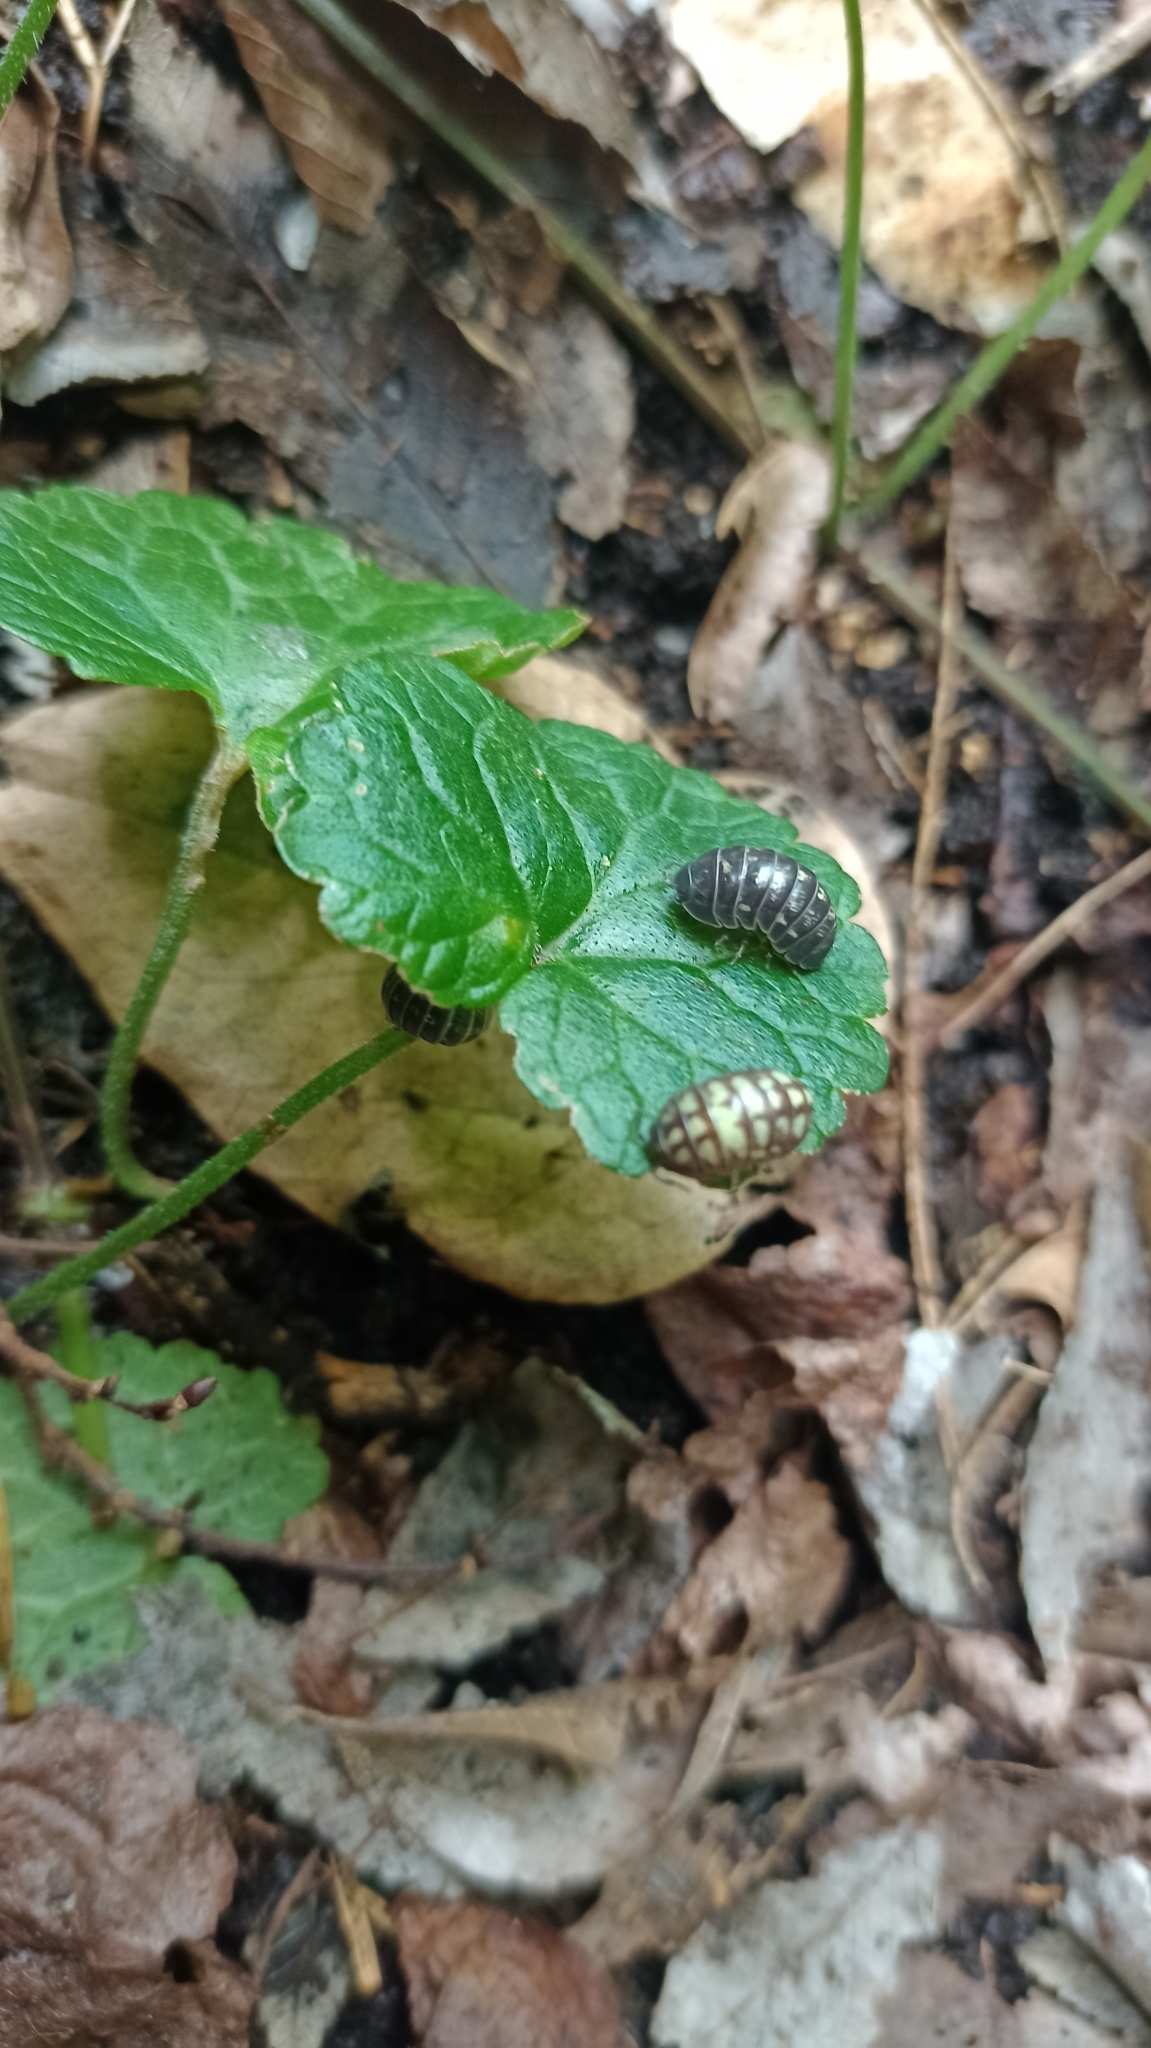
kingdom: Animalia
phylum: Arthropoda
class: Malacostraca
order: Isopoda
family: Armadillidiidae
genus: Armadillidium
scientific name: Armadillidium vulgare
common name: Common pill woodlouse
